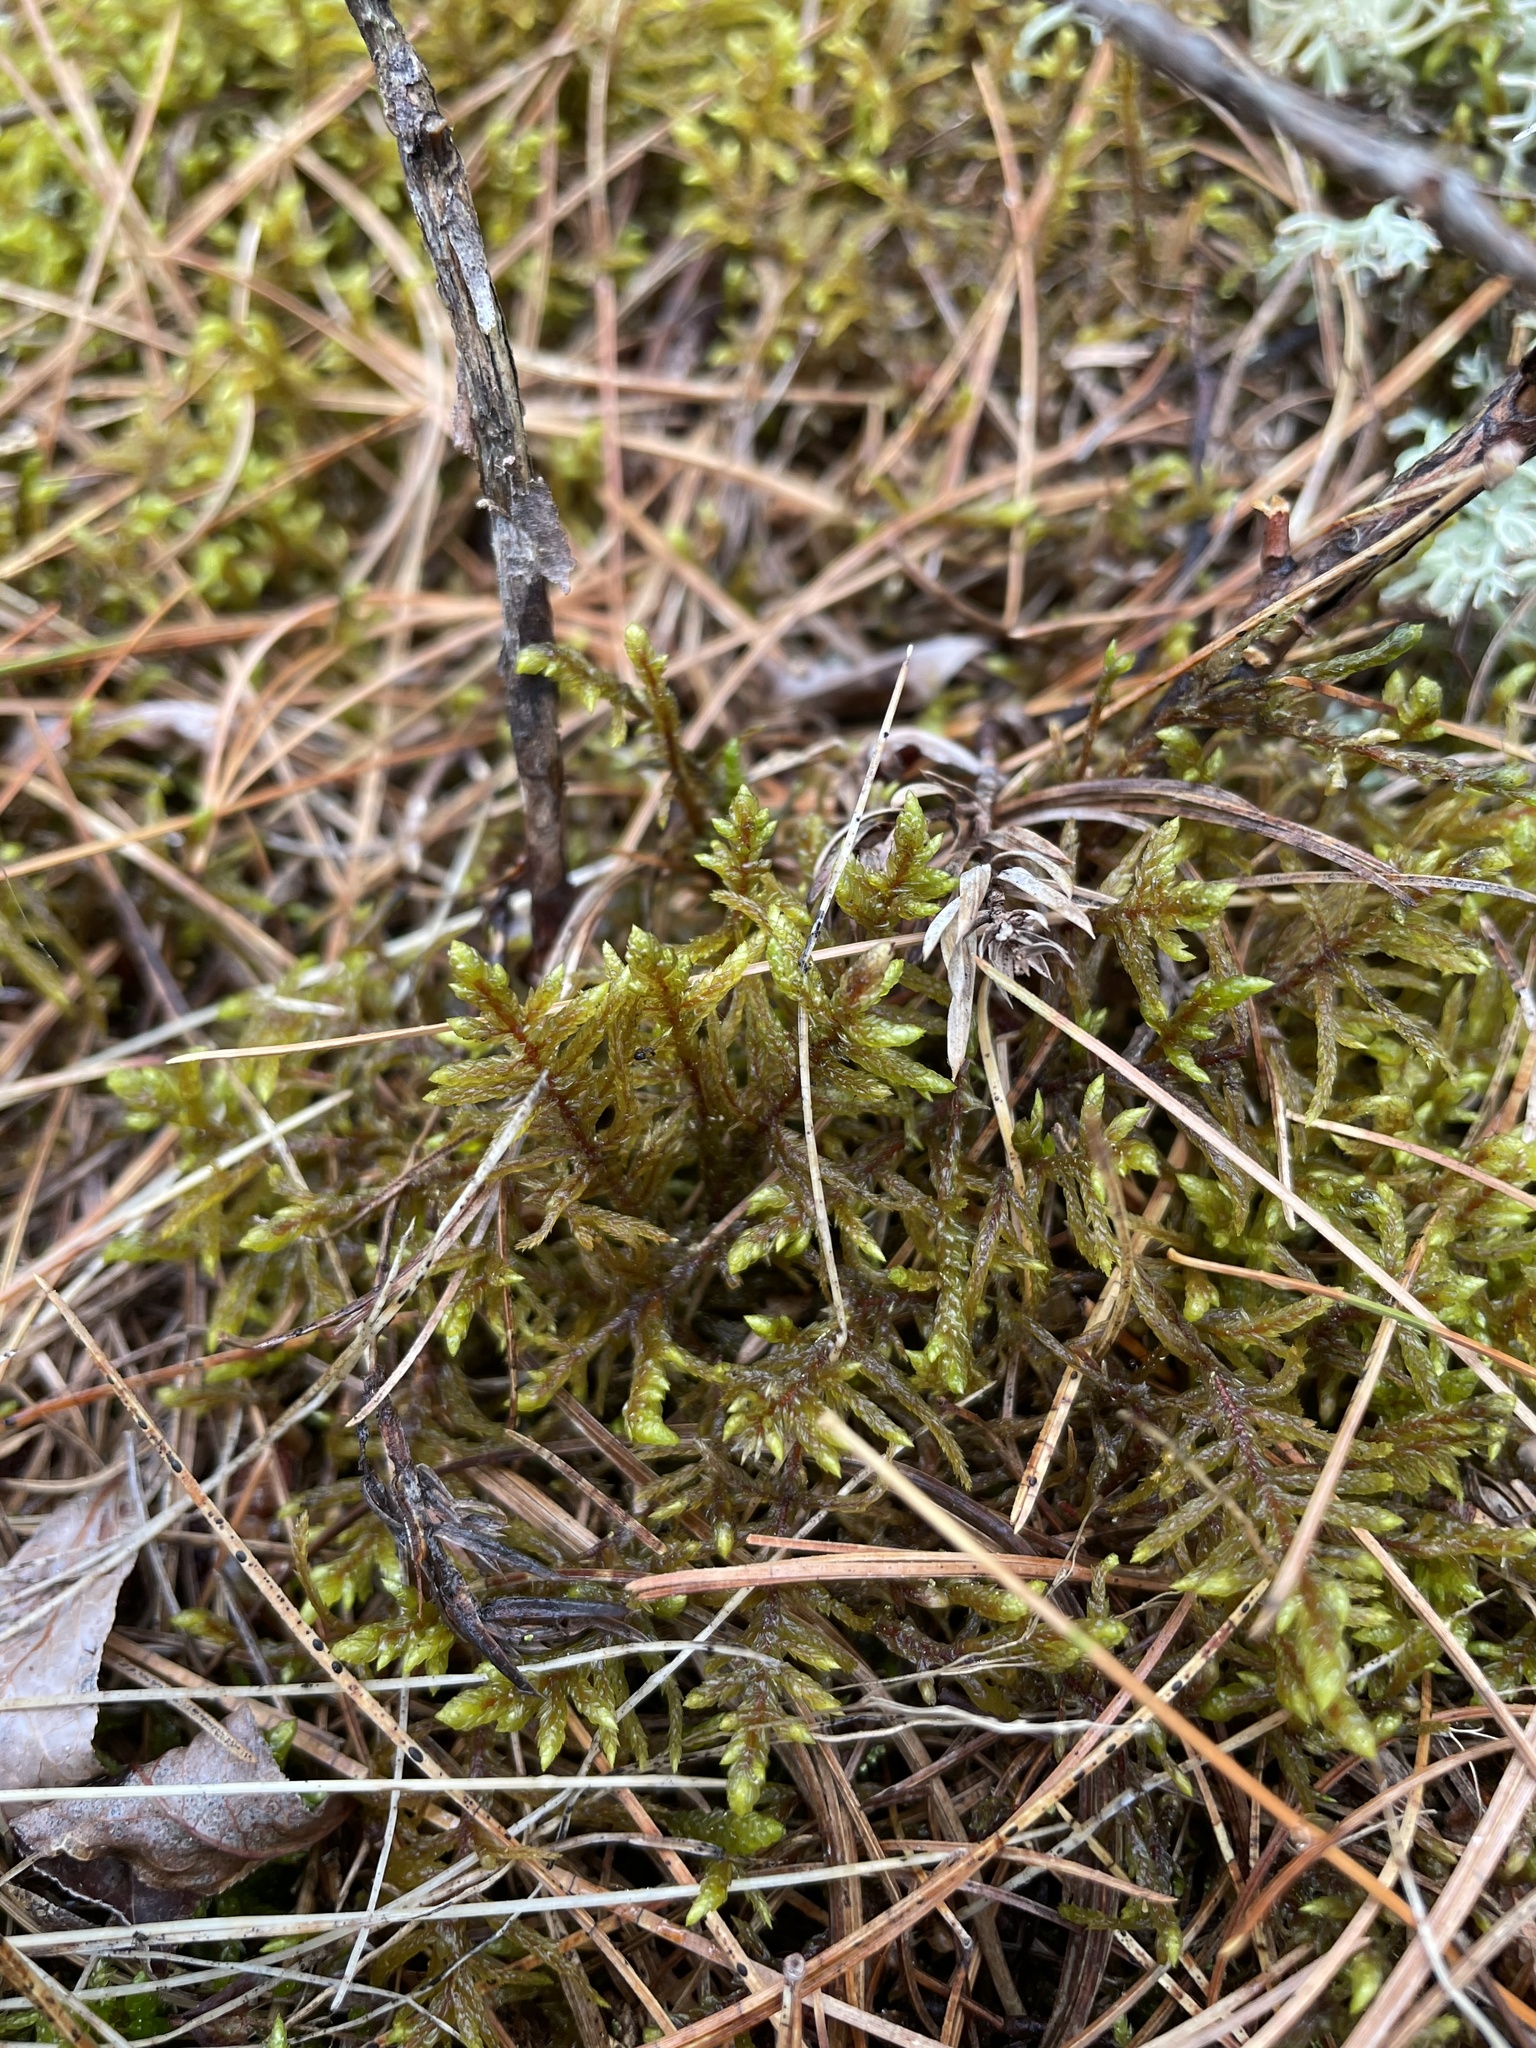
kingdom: Plantae
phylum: Bryophyta
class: Bryopsida
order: Hypnales
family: Hylocomiaceae
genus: Pleurozium
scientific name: Pleurozium schreberi
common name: Red-stemmed feather moss
